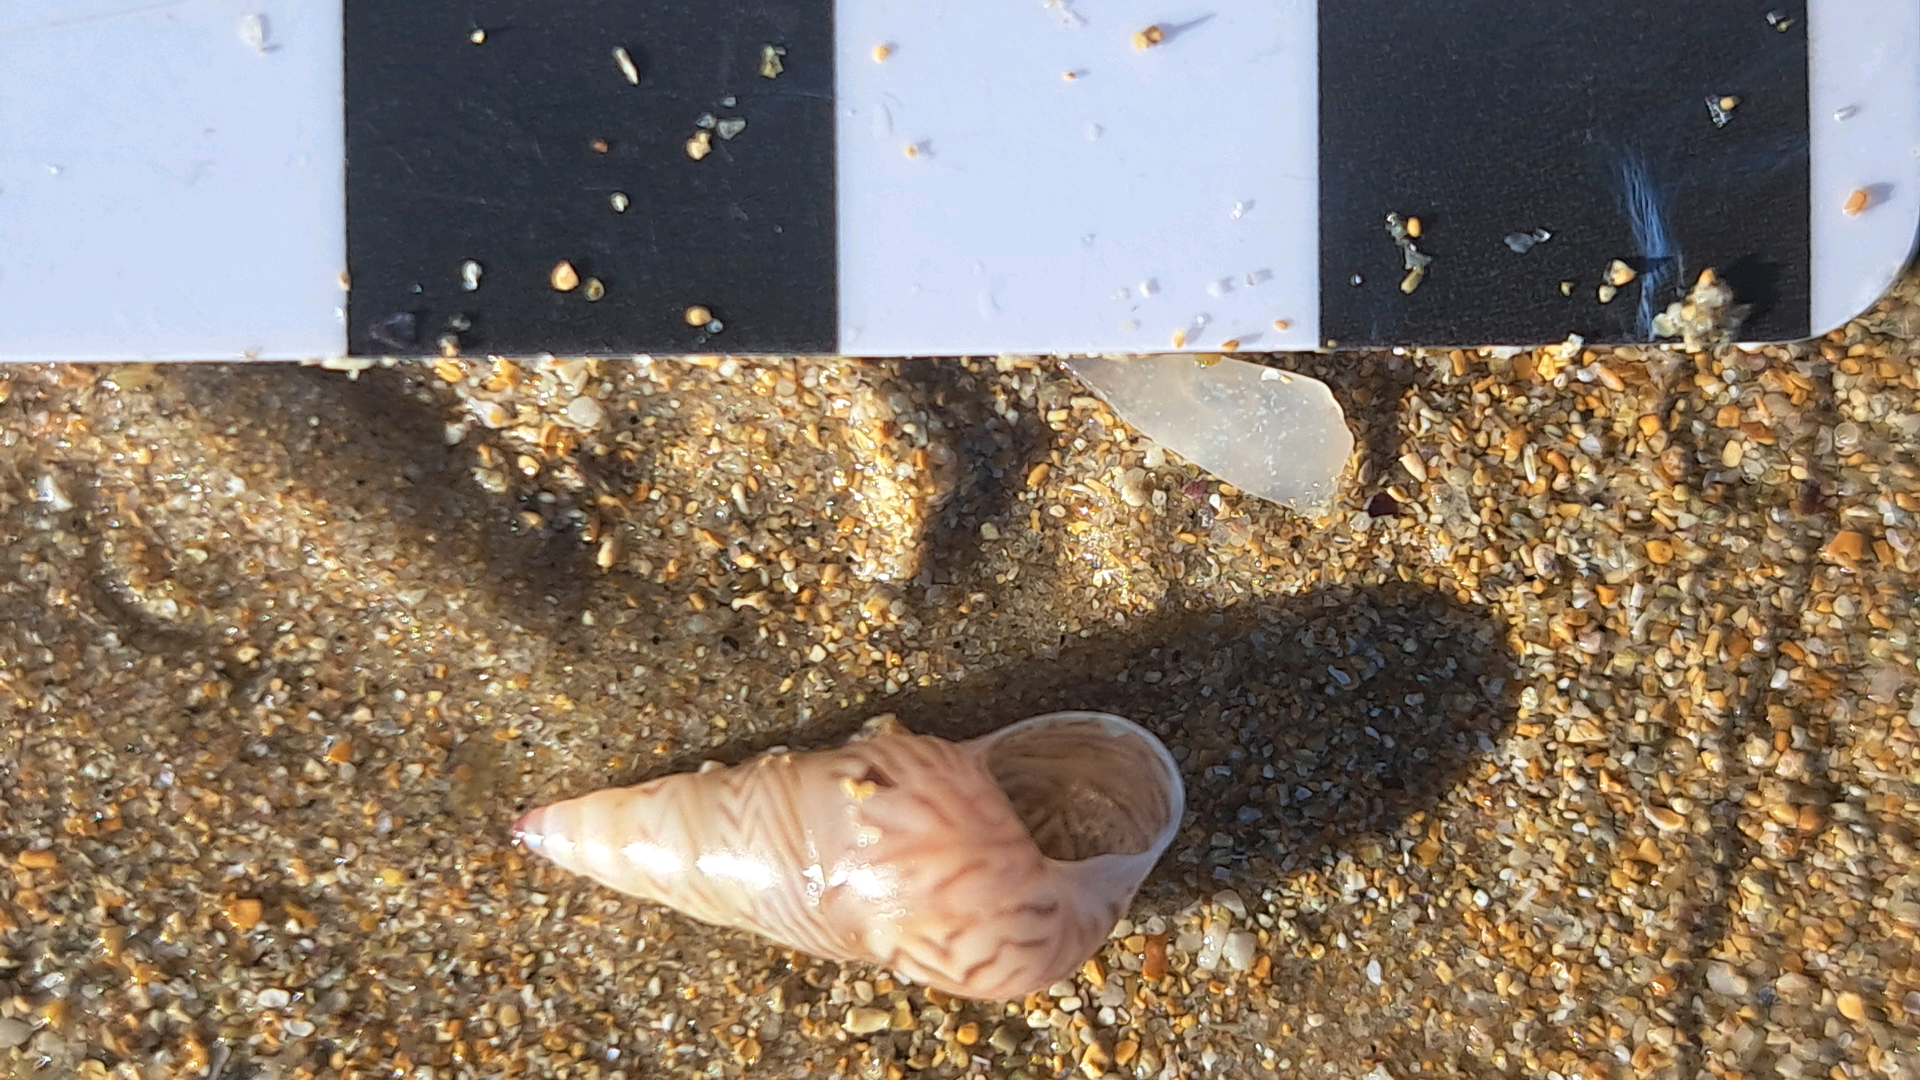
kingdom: Animalia
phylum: Mollusca
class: Gastropoda
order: Trochida
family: Trochidae
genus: Bankivia
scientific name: Bankivia fasciata
